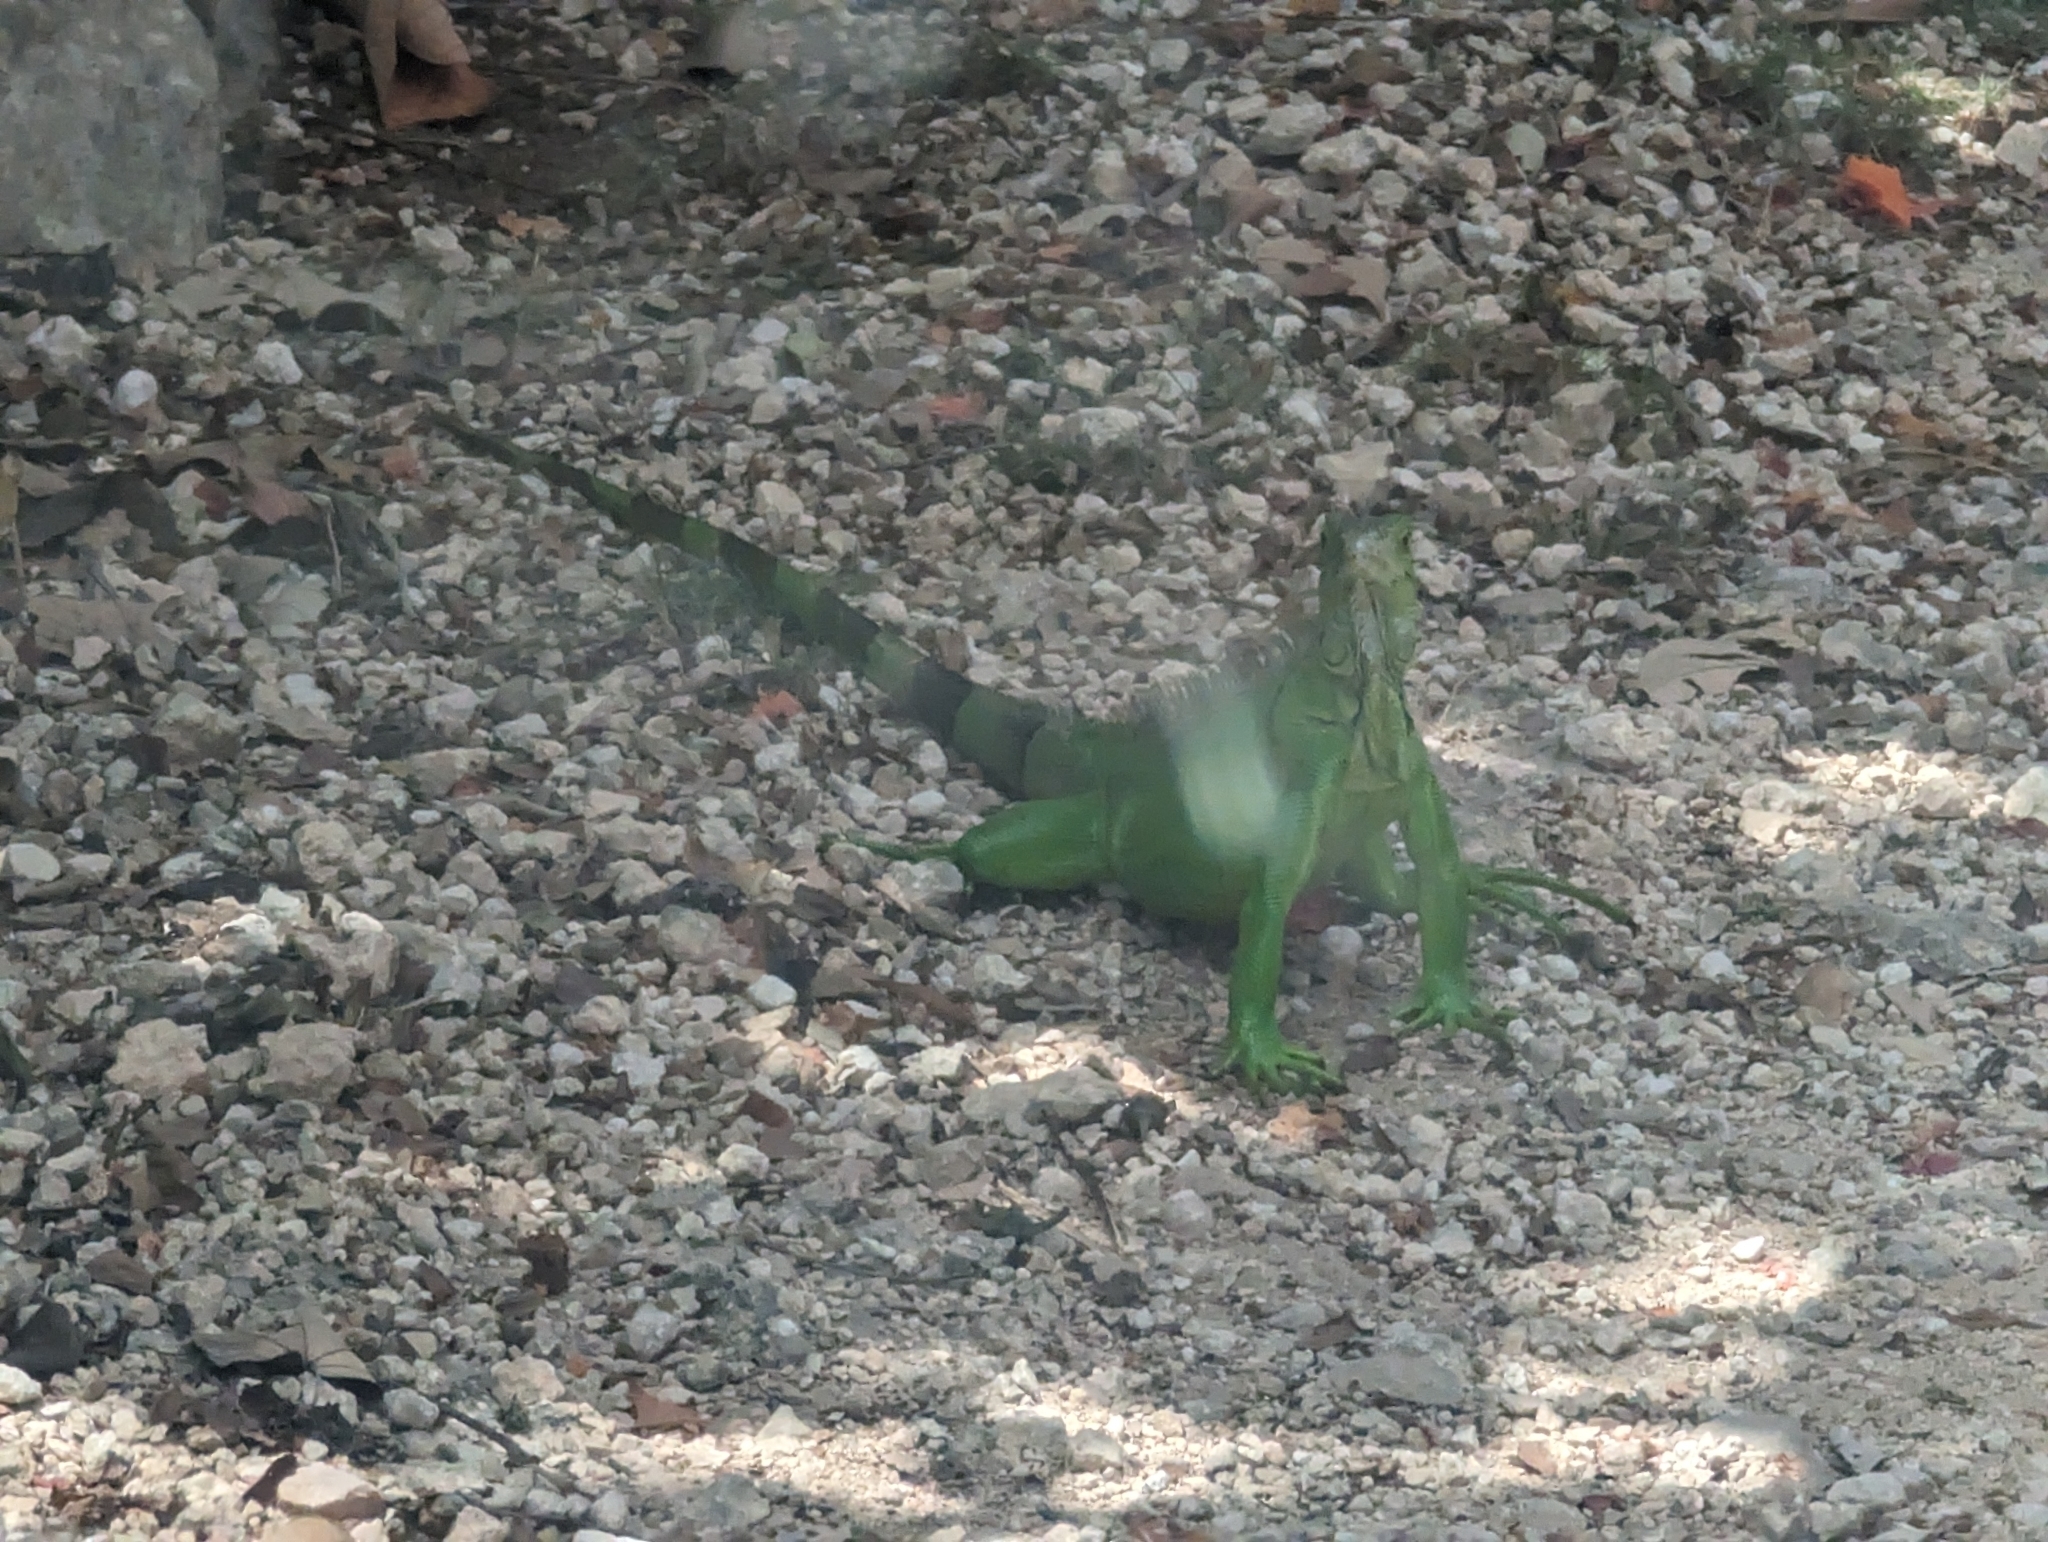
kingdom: Animalia
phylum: Chordata
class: Squamata
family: Iguanidae
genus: Iguana
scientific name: Iguana iguana
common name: Green iguana
